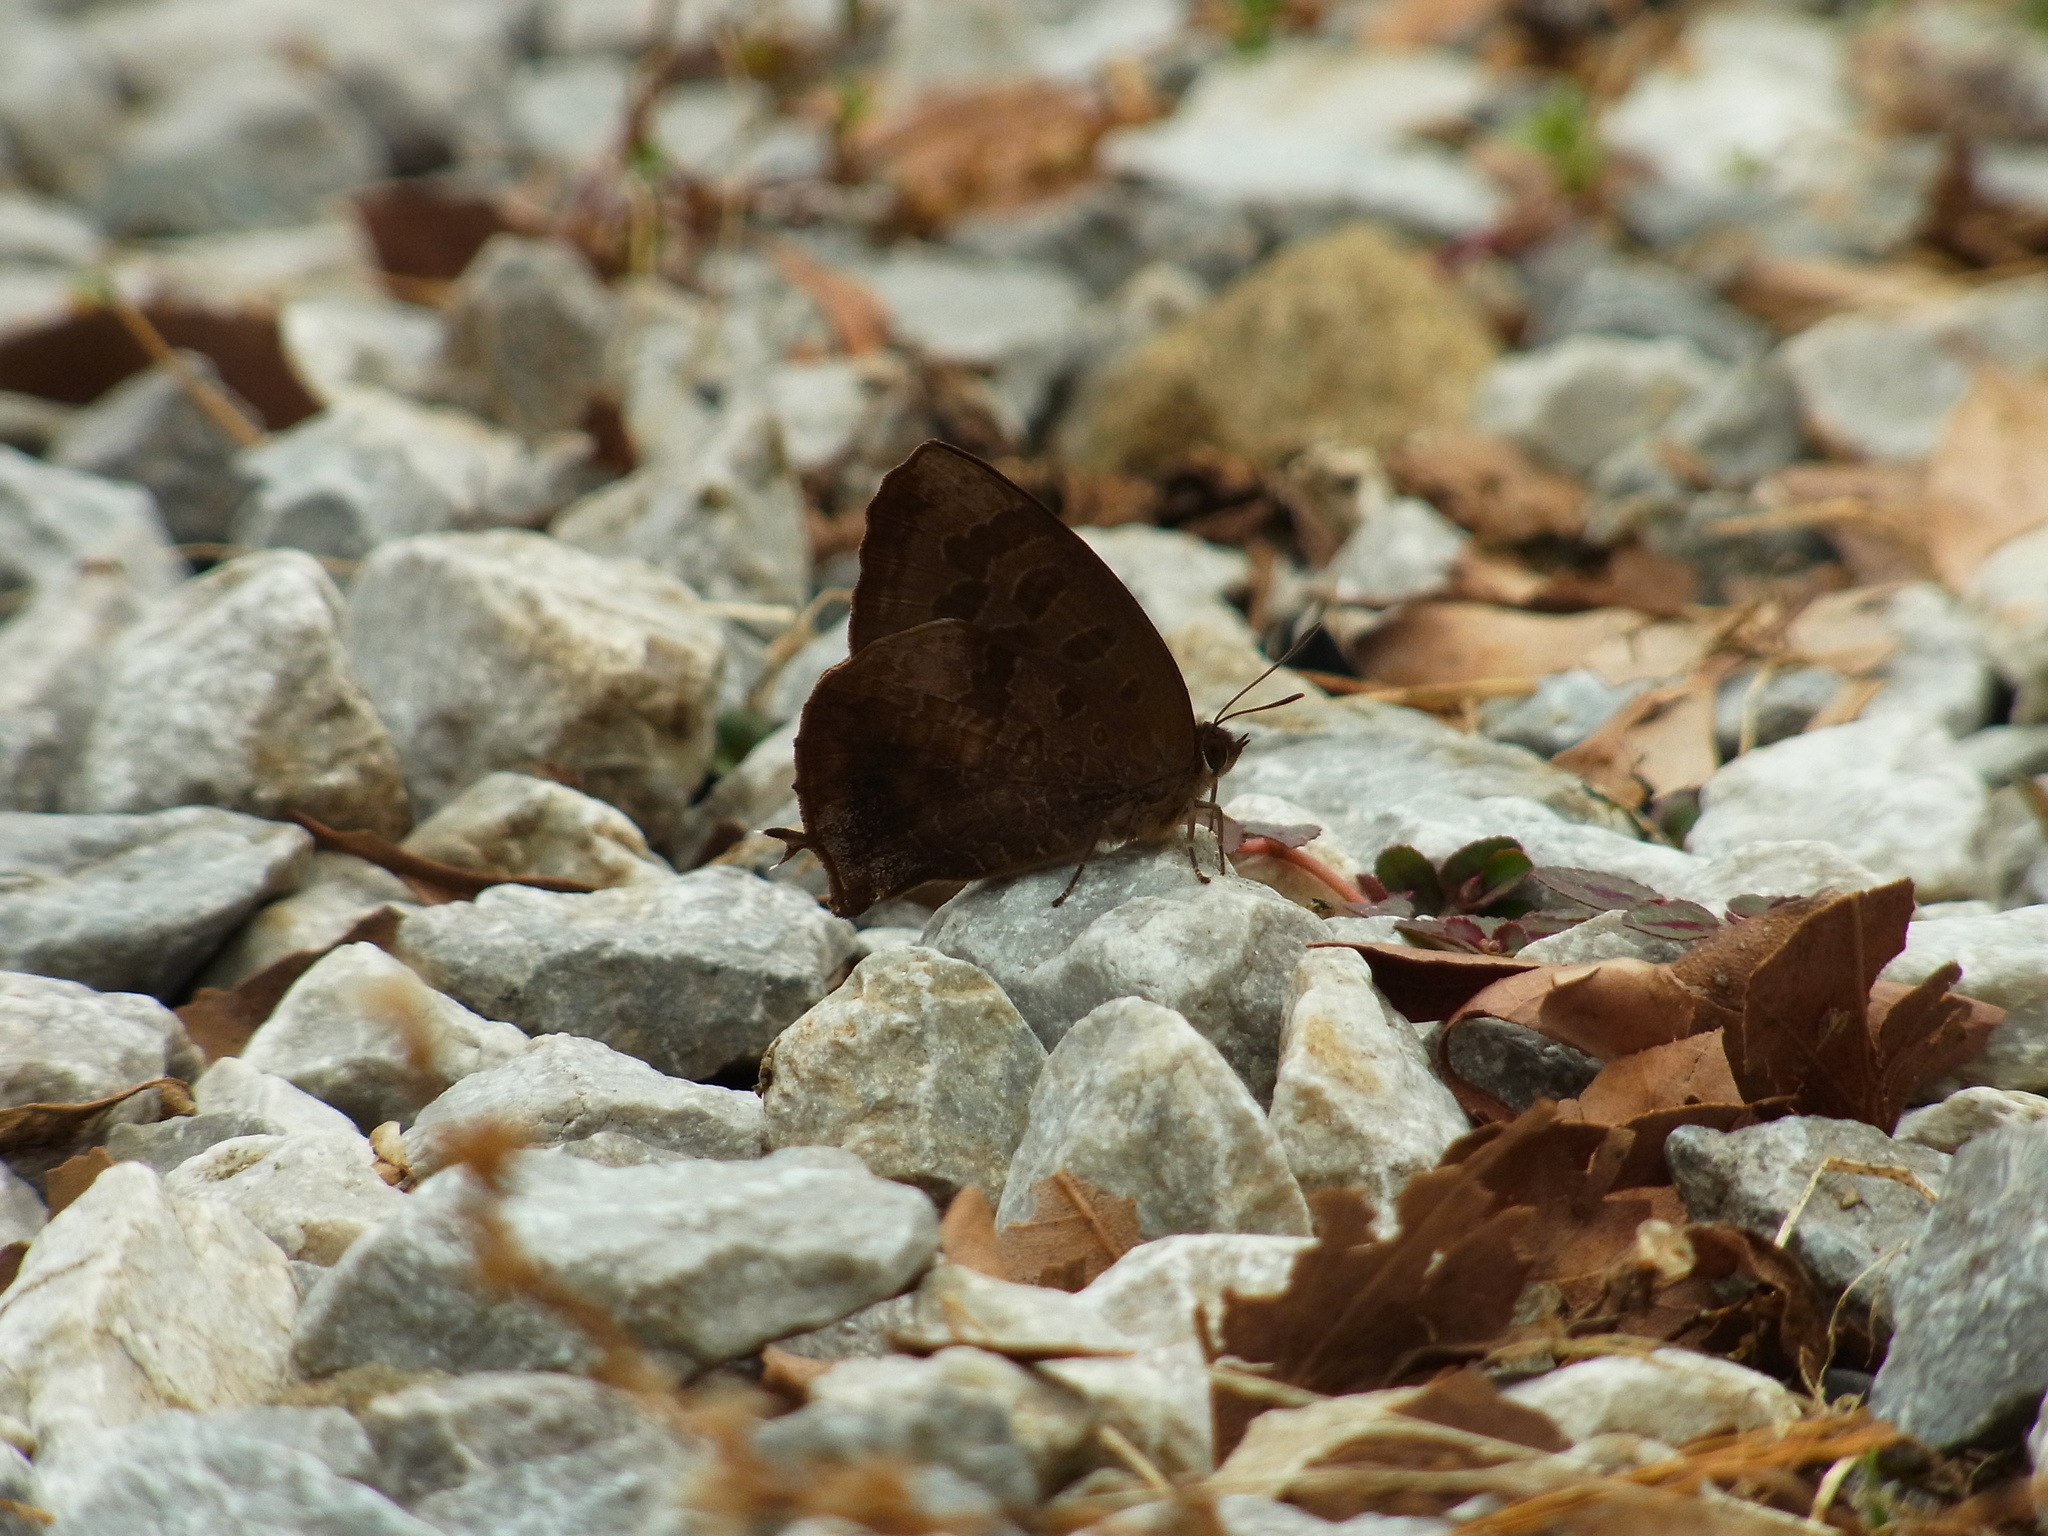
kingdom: Animalia
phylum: Arthropoda
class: Insecta
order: Lepidoptera
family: Lycaenidae
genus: Amblypodia
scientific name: Amblypodia turbata
